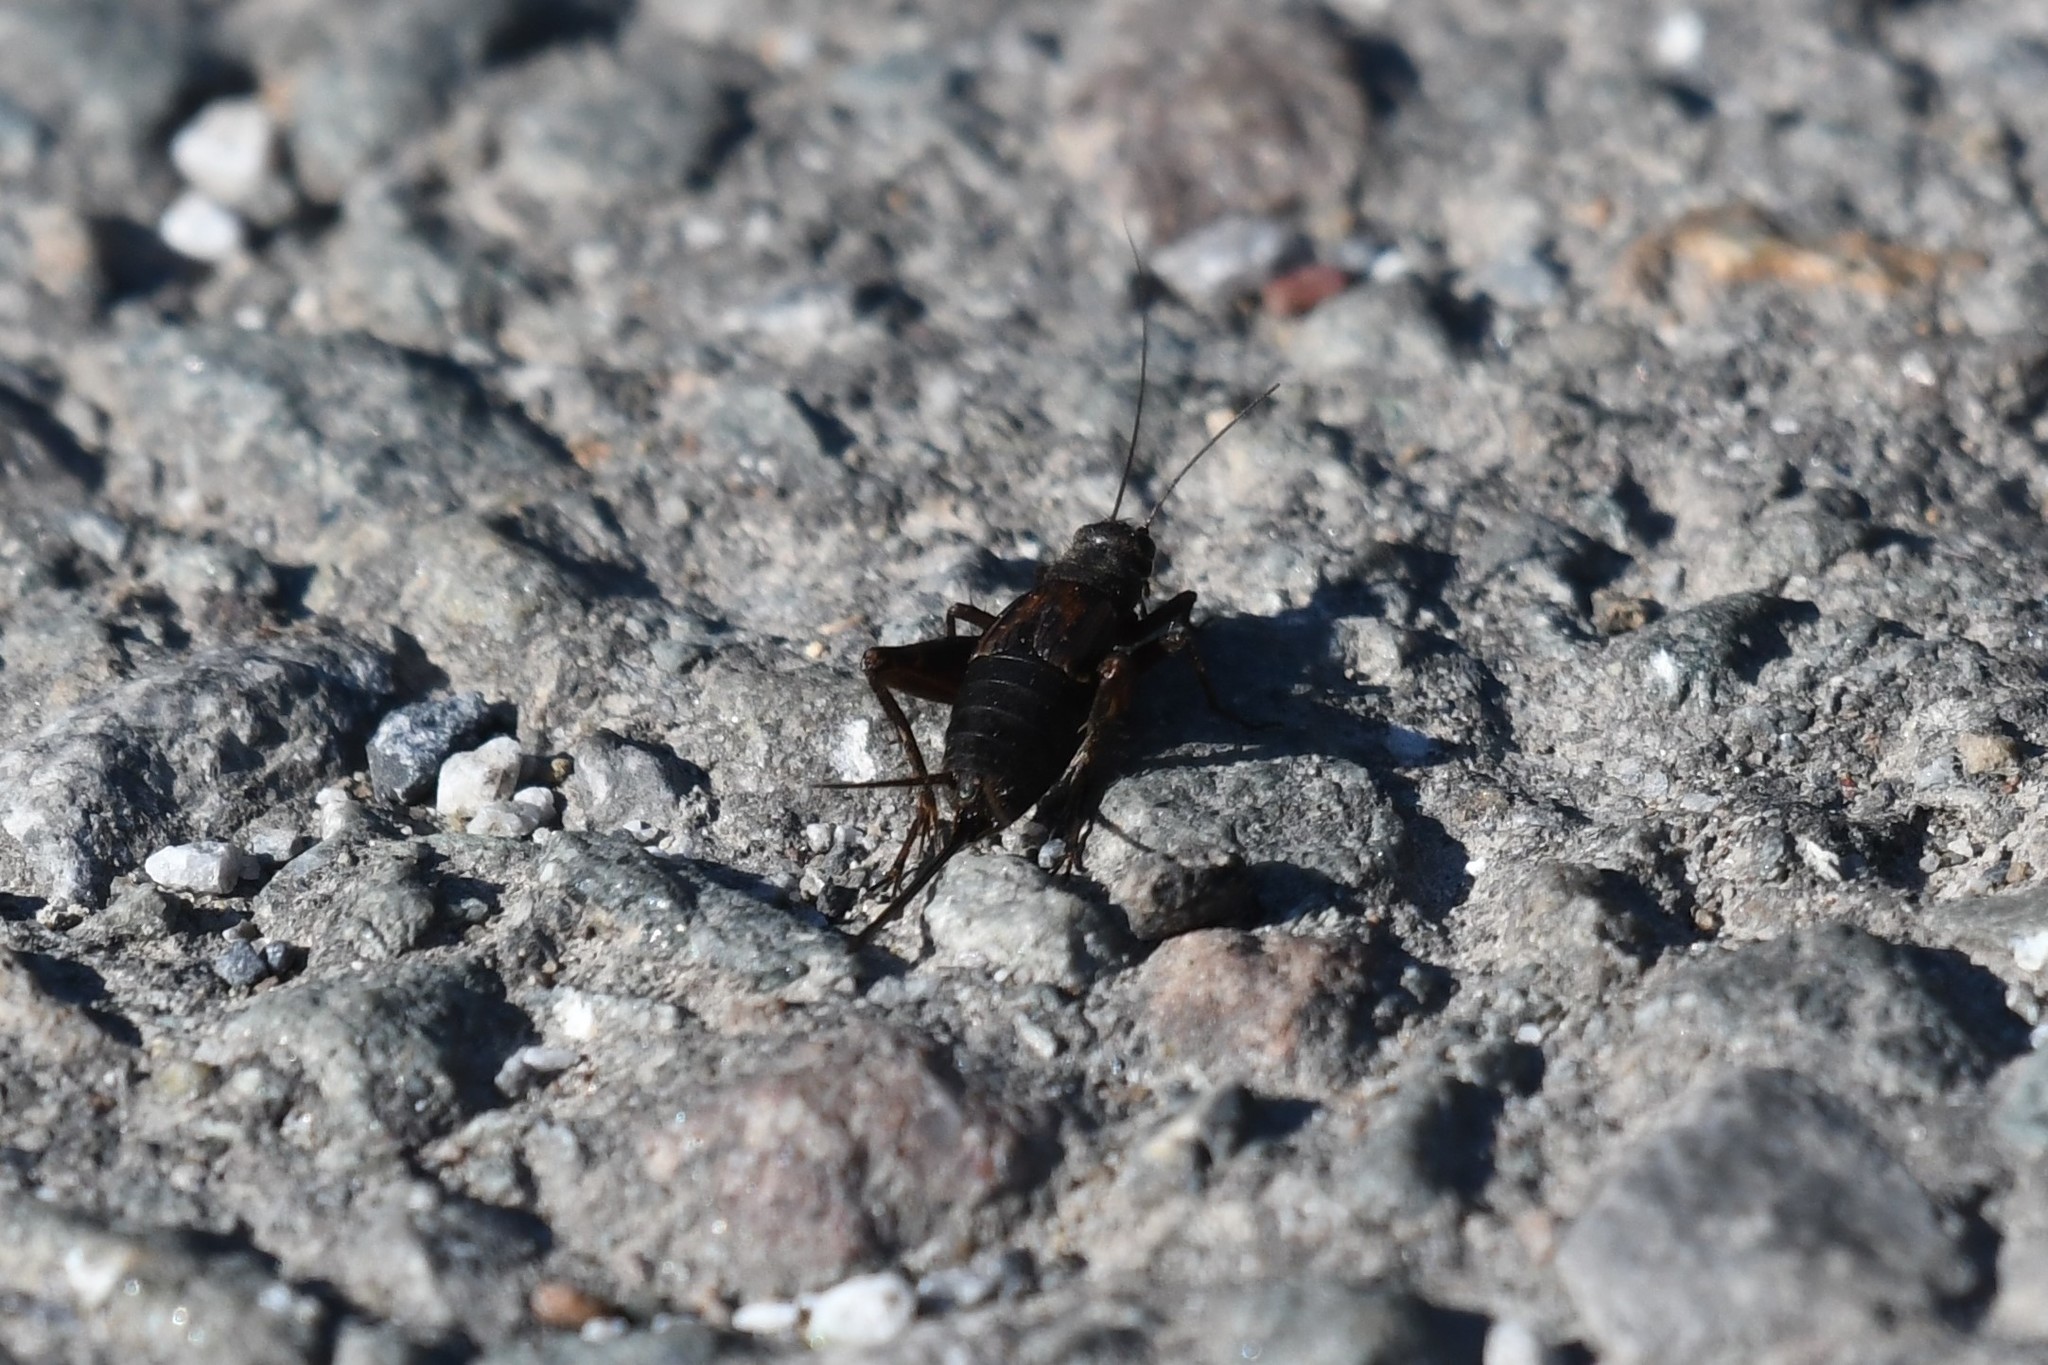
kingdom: Animalia
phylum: Arthropoda
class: Insecta
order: Orthoptera
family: Gryllidae
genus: Gryllus
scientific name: Gryllus pennsylvanicus
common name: Fall field cricket
